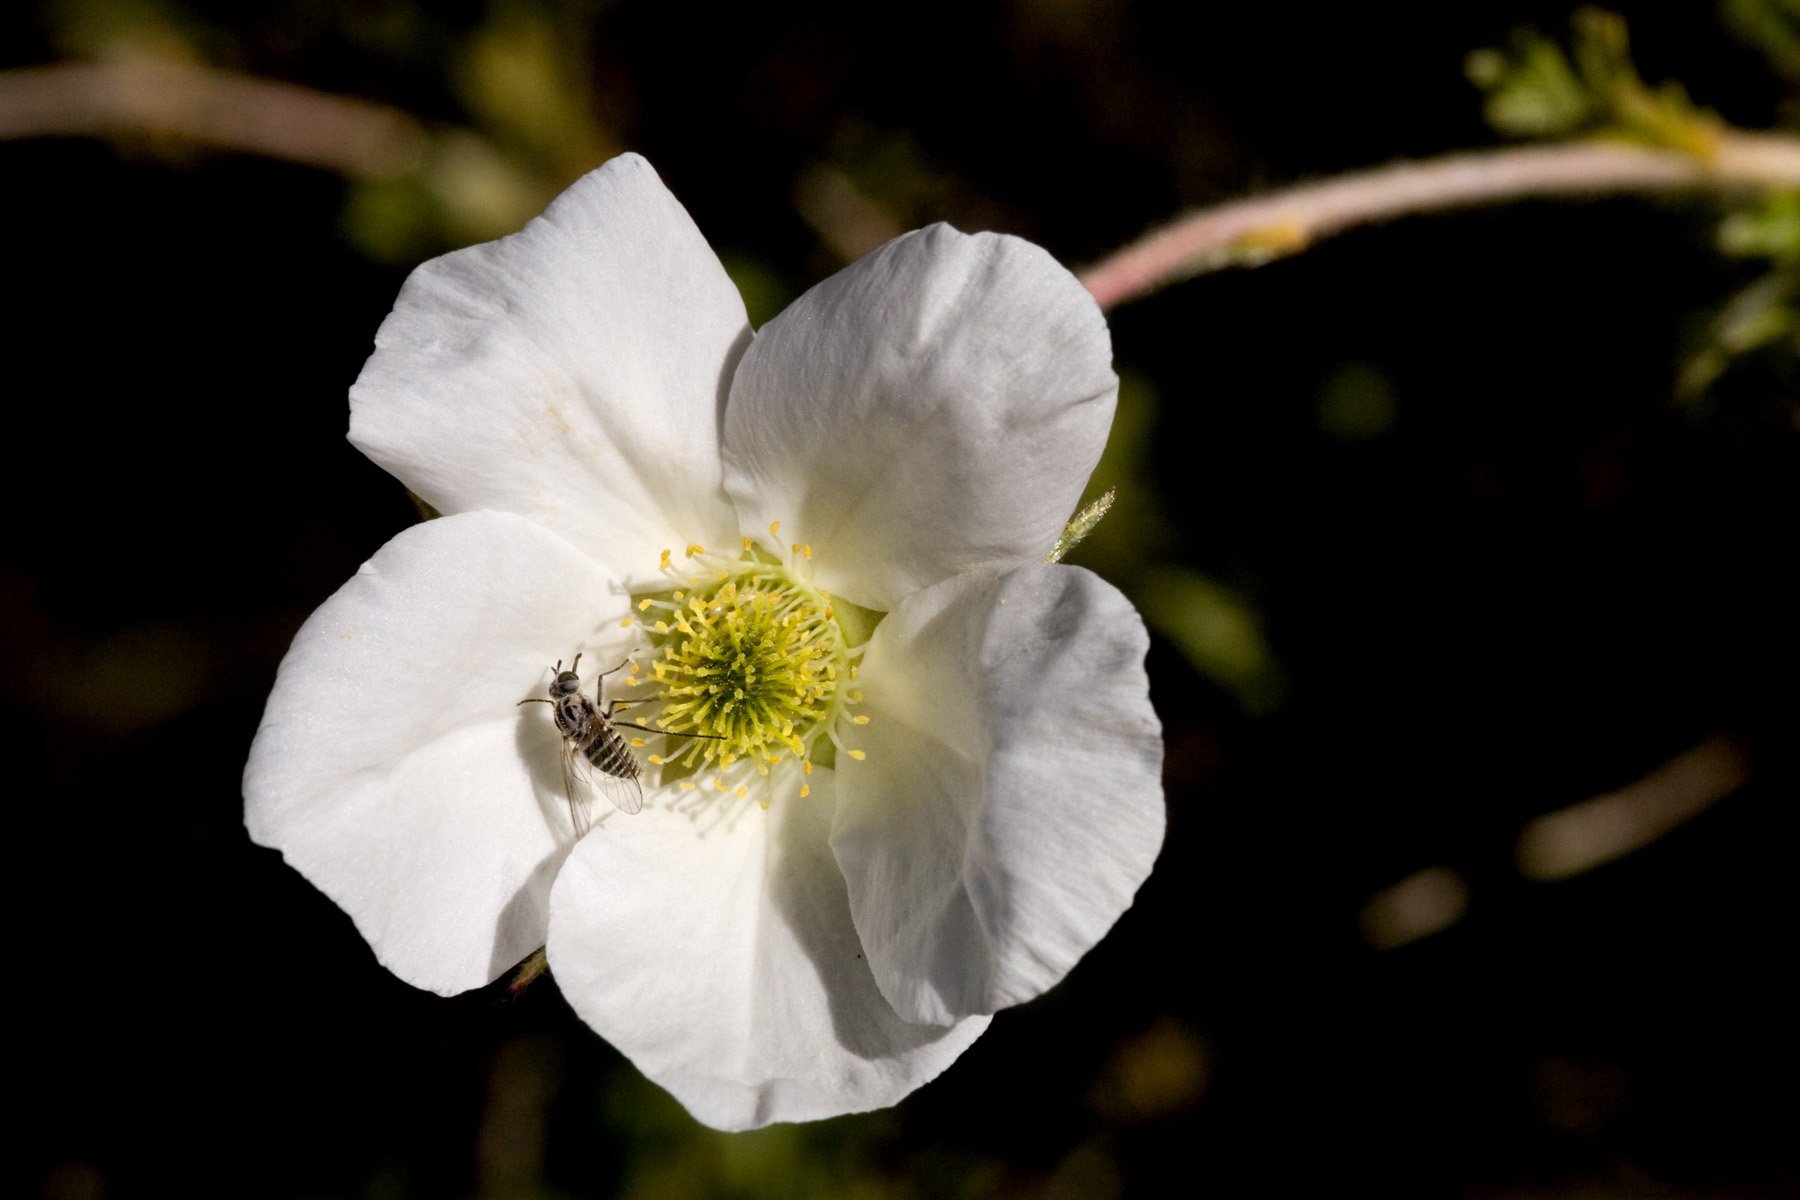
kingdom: Plantae
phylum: Tracheophyta
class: Magnoliopsida
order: Rosales
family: Rosaceae
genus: Fallugia
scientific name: Fallugia paradoxa
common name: Apache-plume
